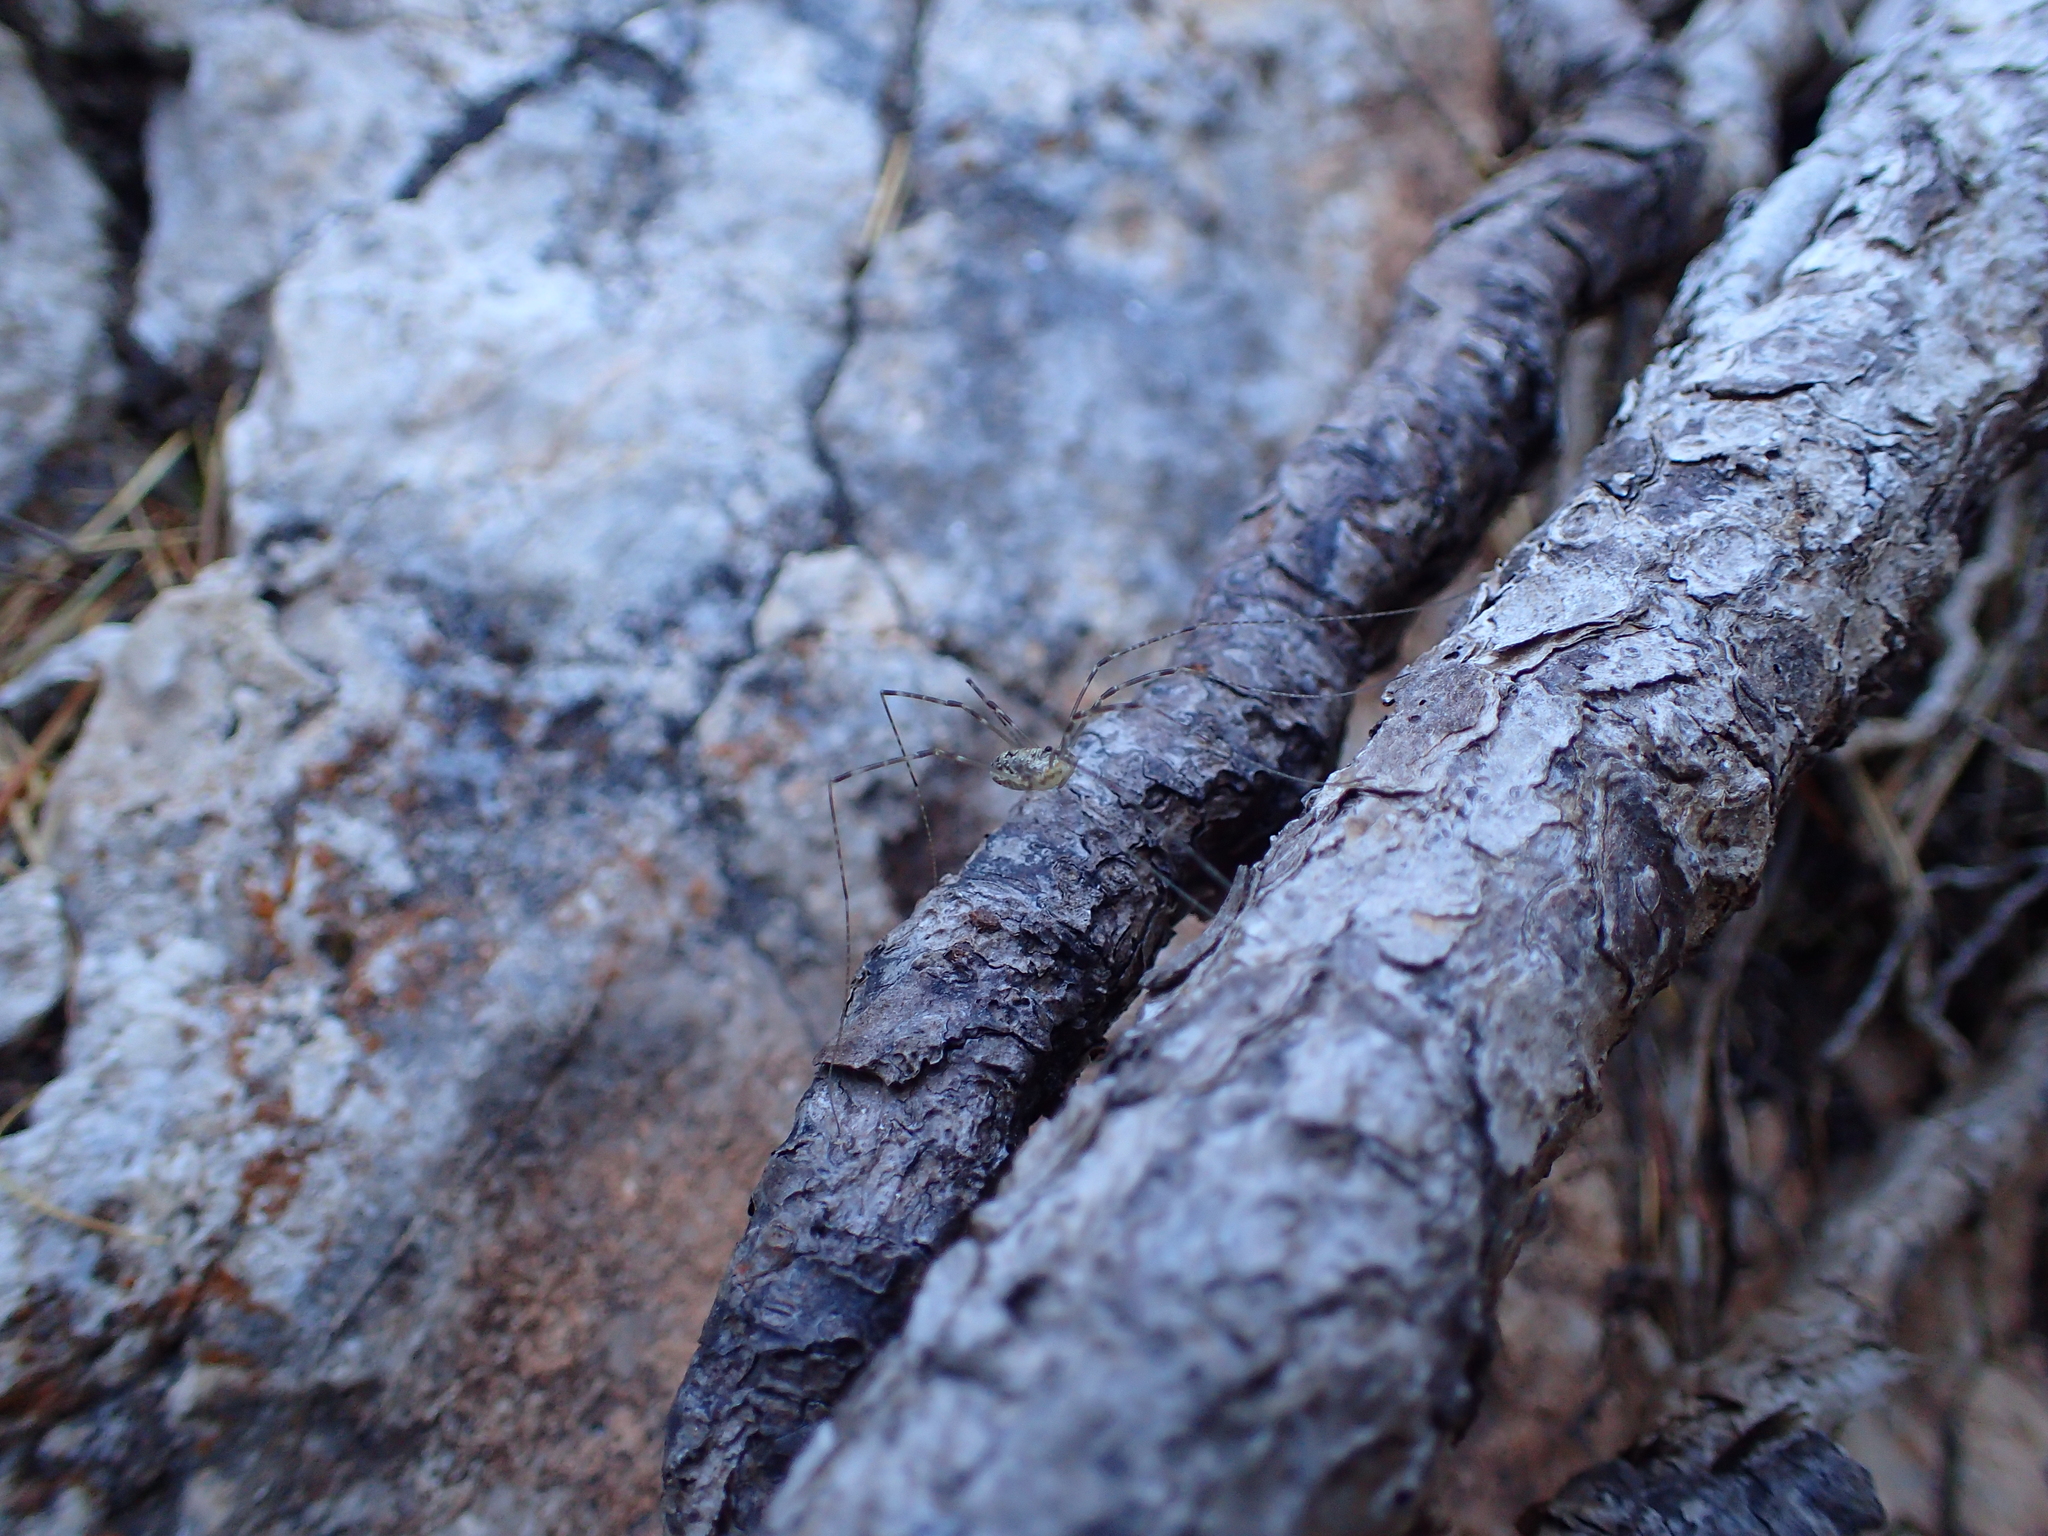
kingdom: Animalia
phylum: Arthropoda
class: Arachnida
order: Opiliones
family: Phalangiidae
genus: Amilenus
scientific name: Amilenus aurantiacus
